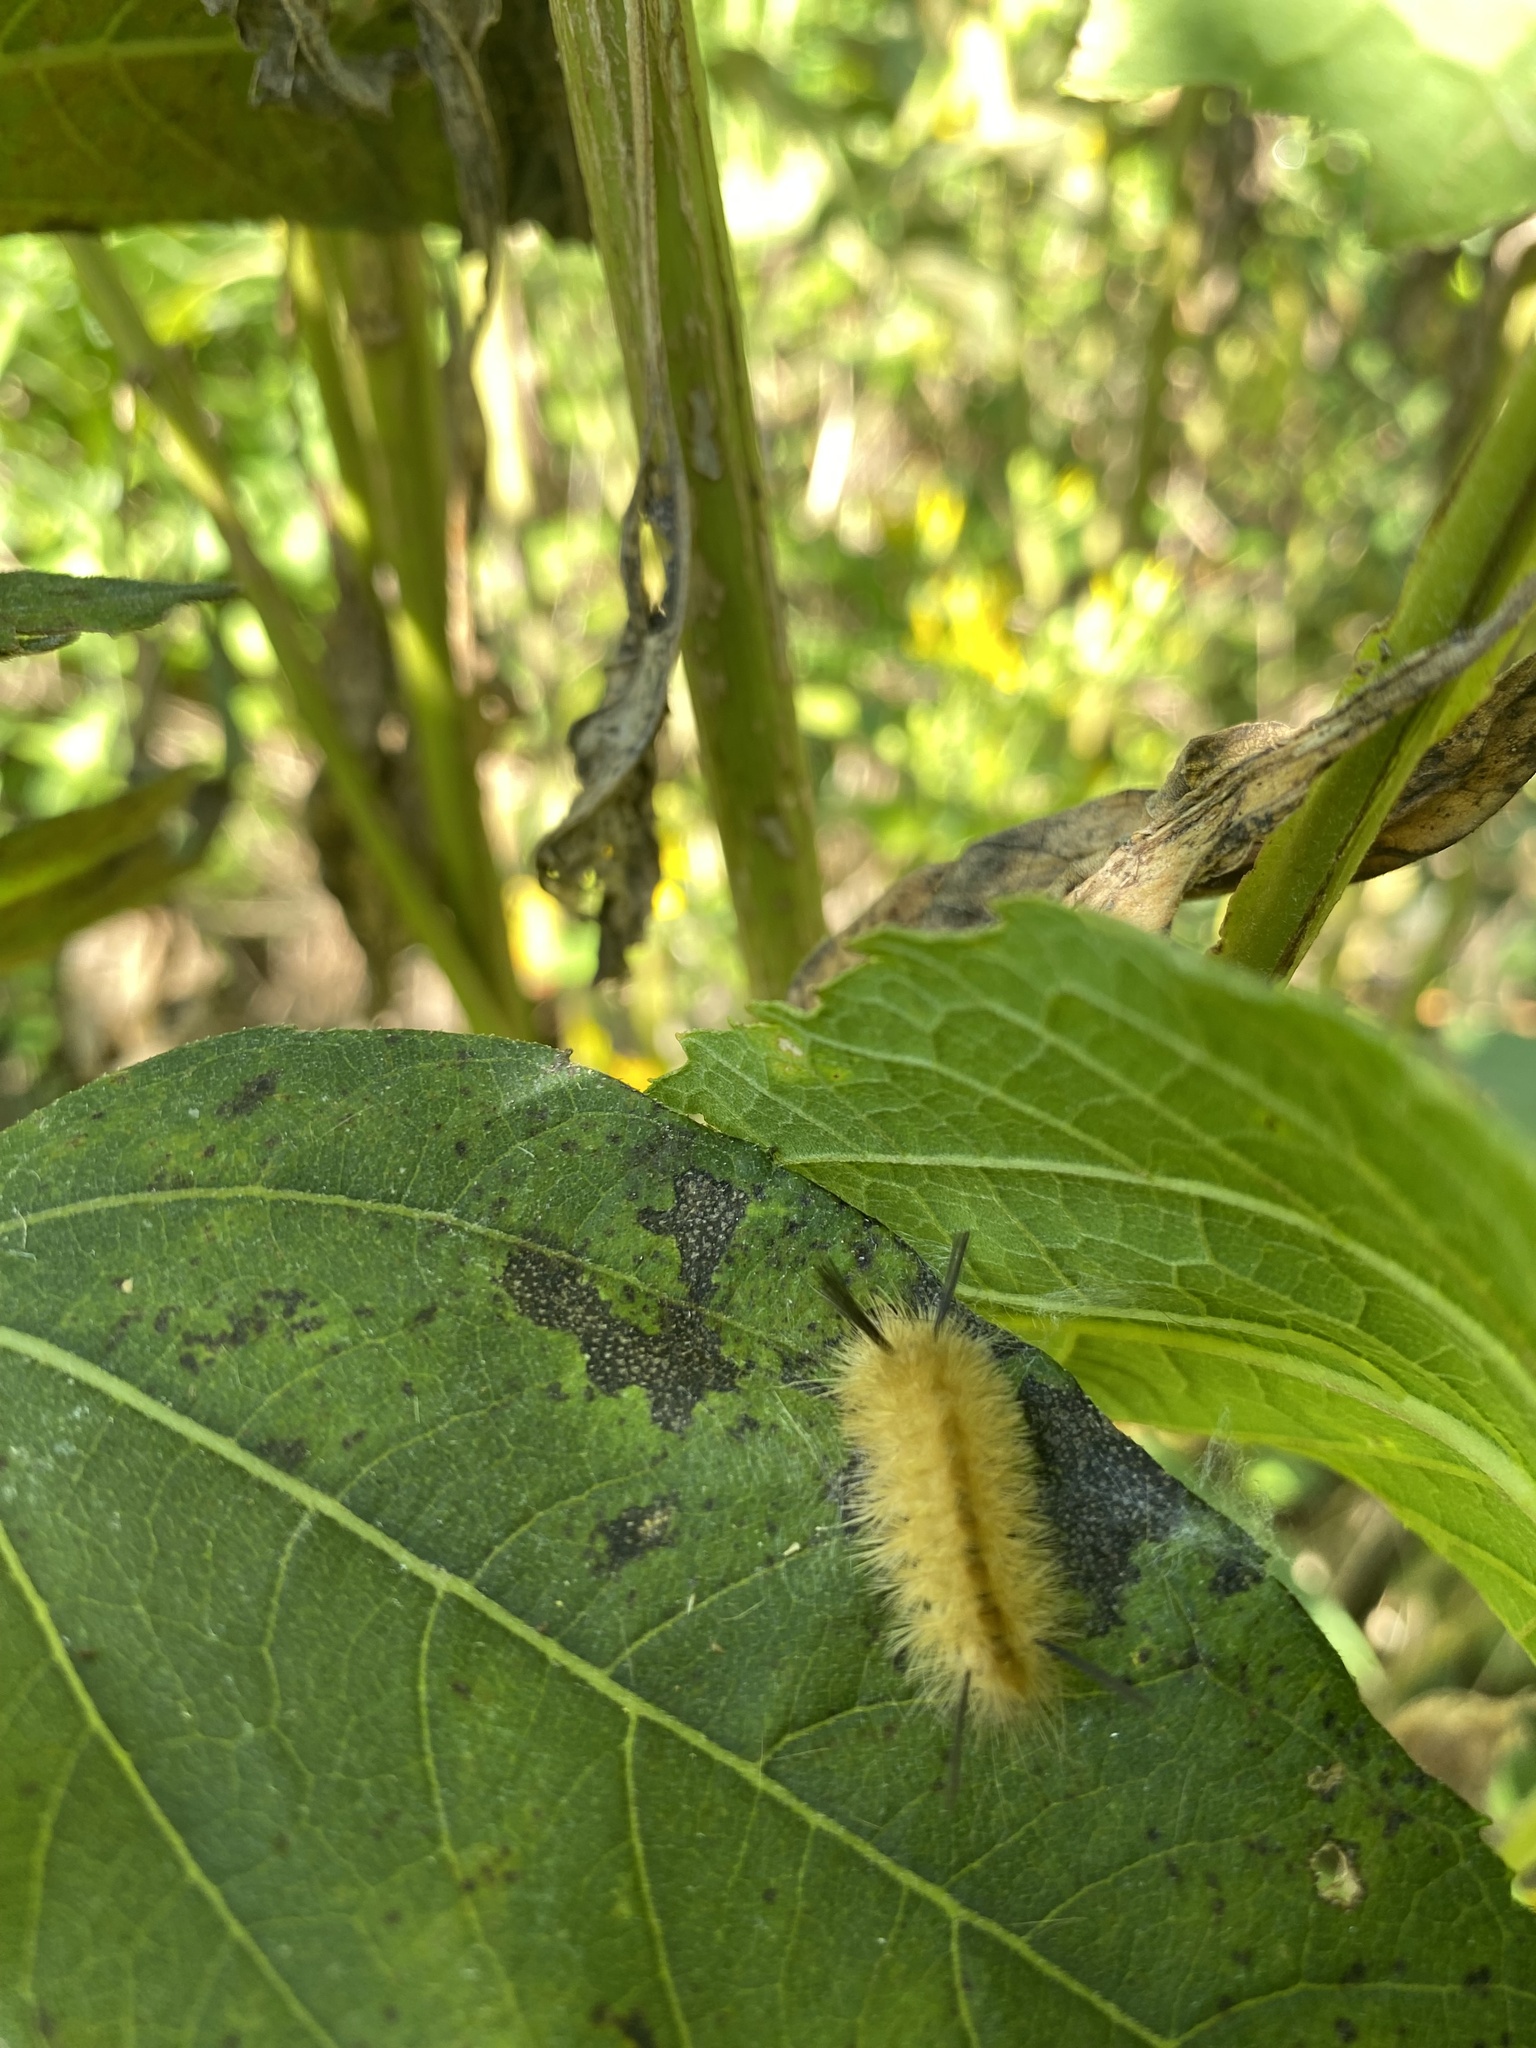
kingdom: Animalia
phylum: Arthropoda
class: Insecta
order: Lepidoptera
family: Erebidae
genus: Halysidota
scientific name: Halysidota tessellaris
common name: Banded tussock moth
